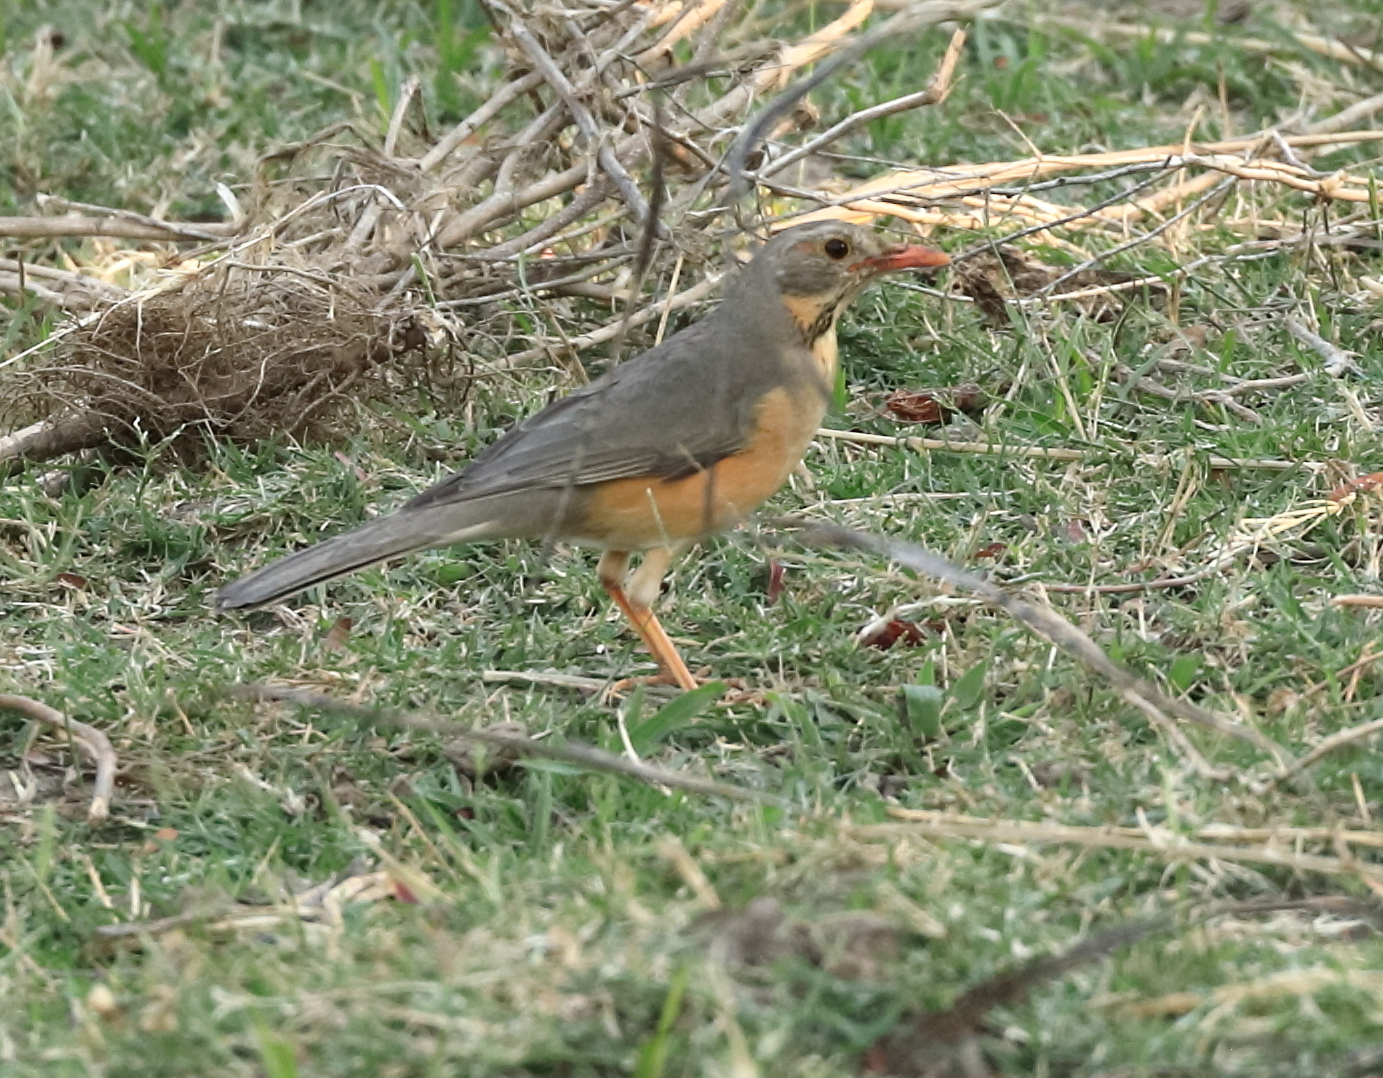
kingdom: Animalia
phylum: Chordata
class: Aves
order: Passeriformes
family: Turdidae
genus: Turdus
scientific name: Turdus libonyana
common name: Kurrichane thrush
